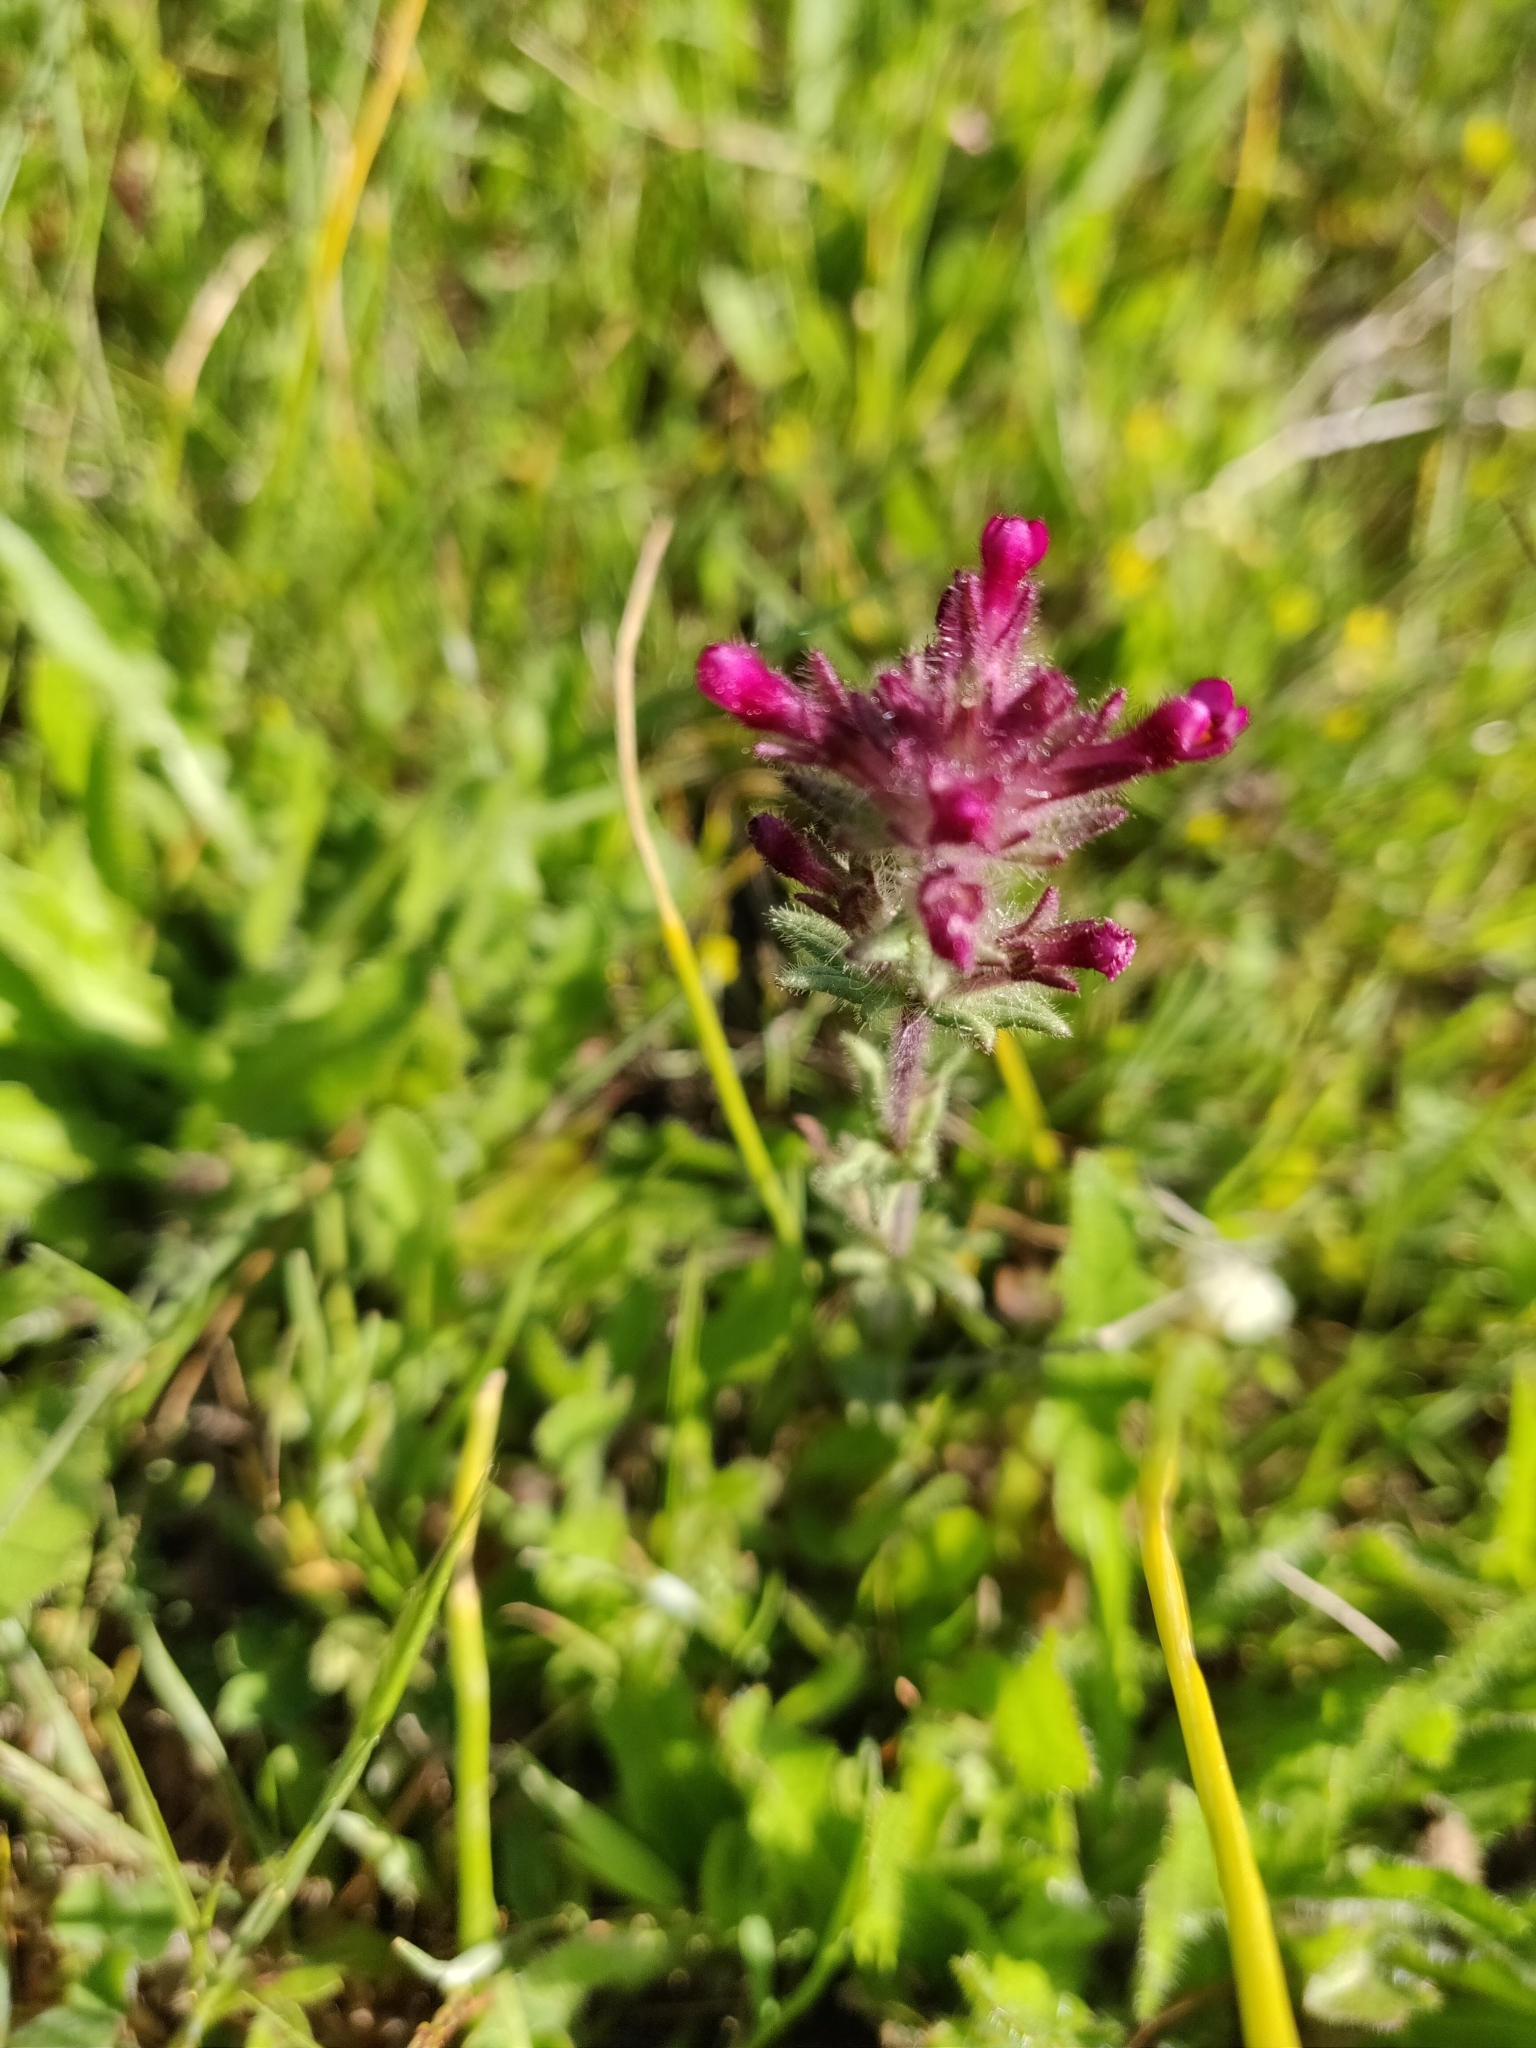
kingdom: Plantae
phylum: Tracheophyta
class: Magnoliopsida
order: Lamiales
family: Orobanchaceae
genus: Parentucellia
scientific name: Parentucellia latifolia
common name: Broadleaf glandweed
